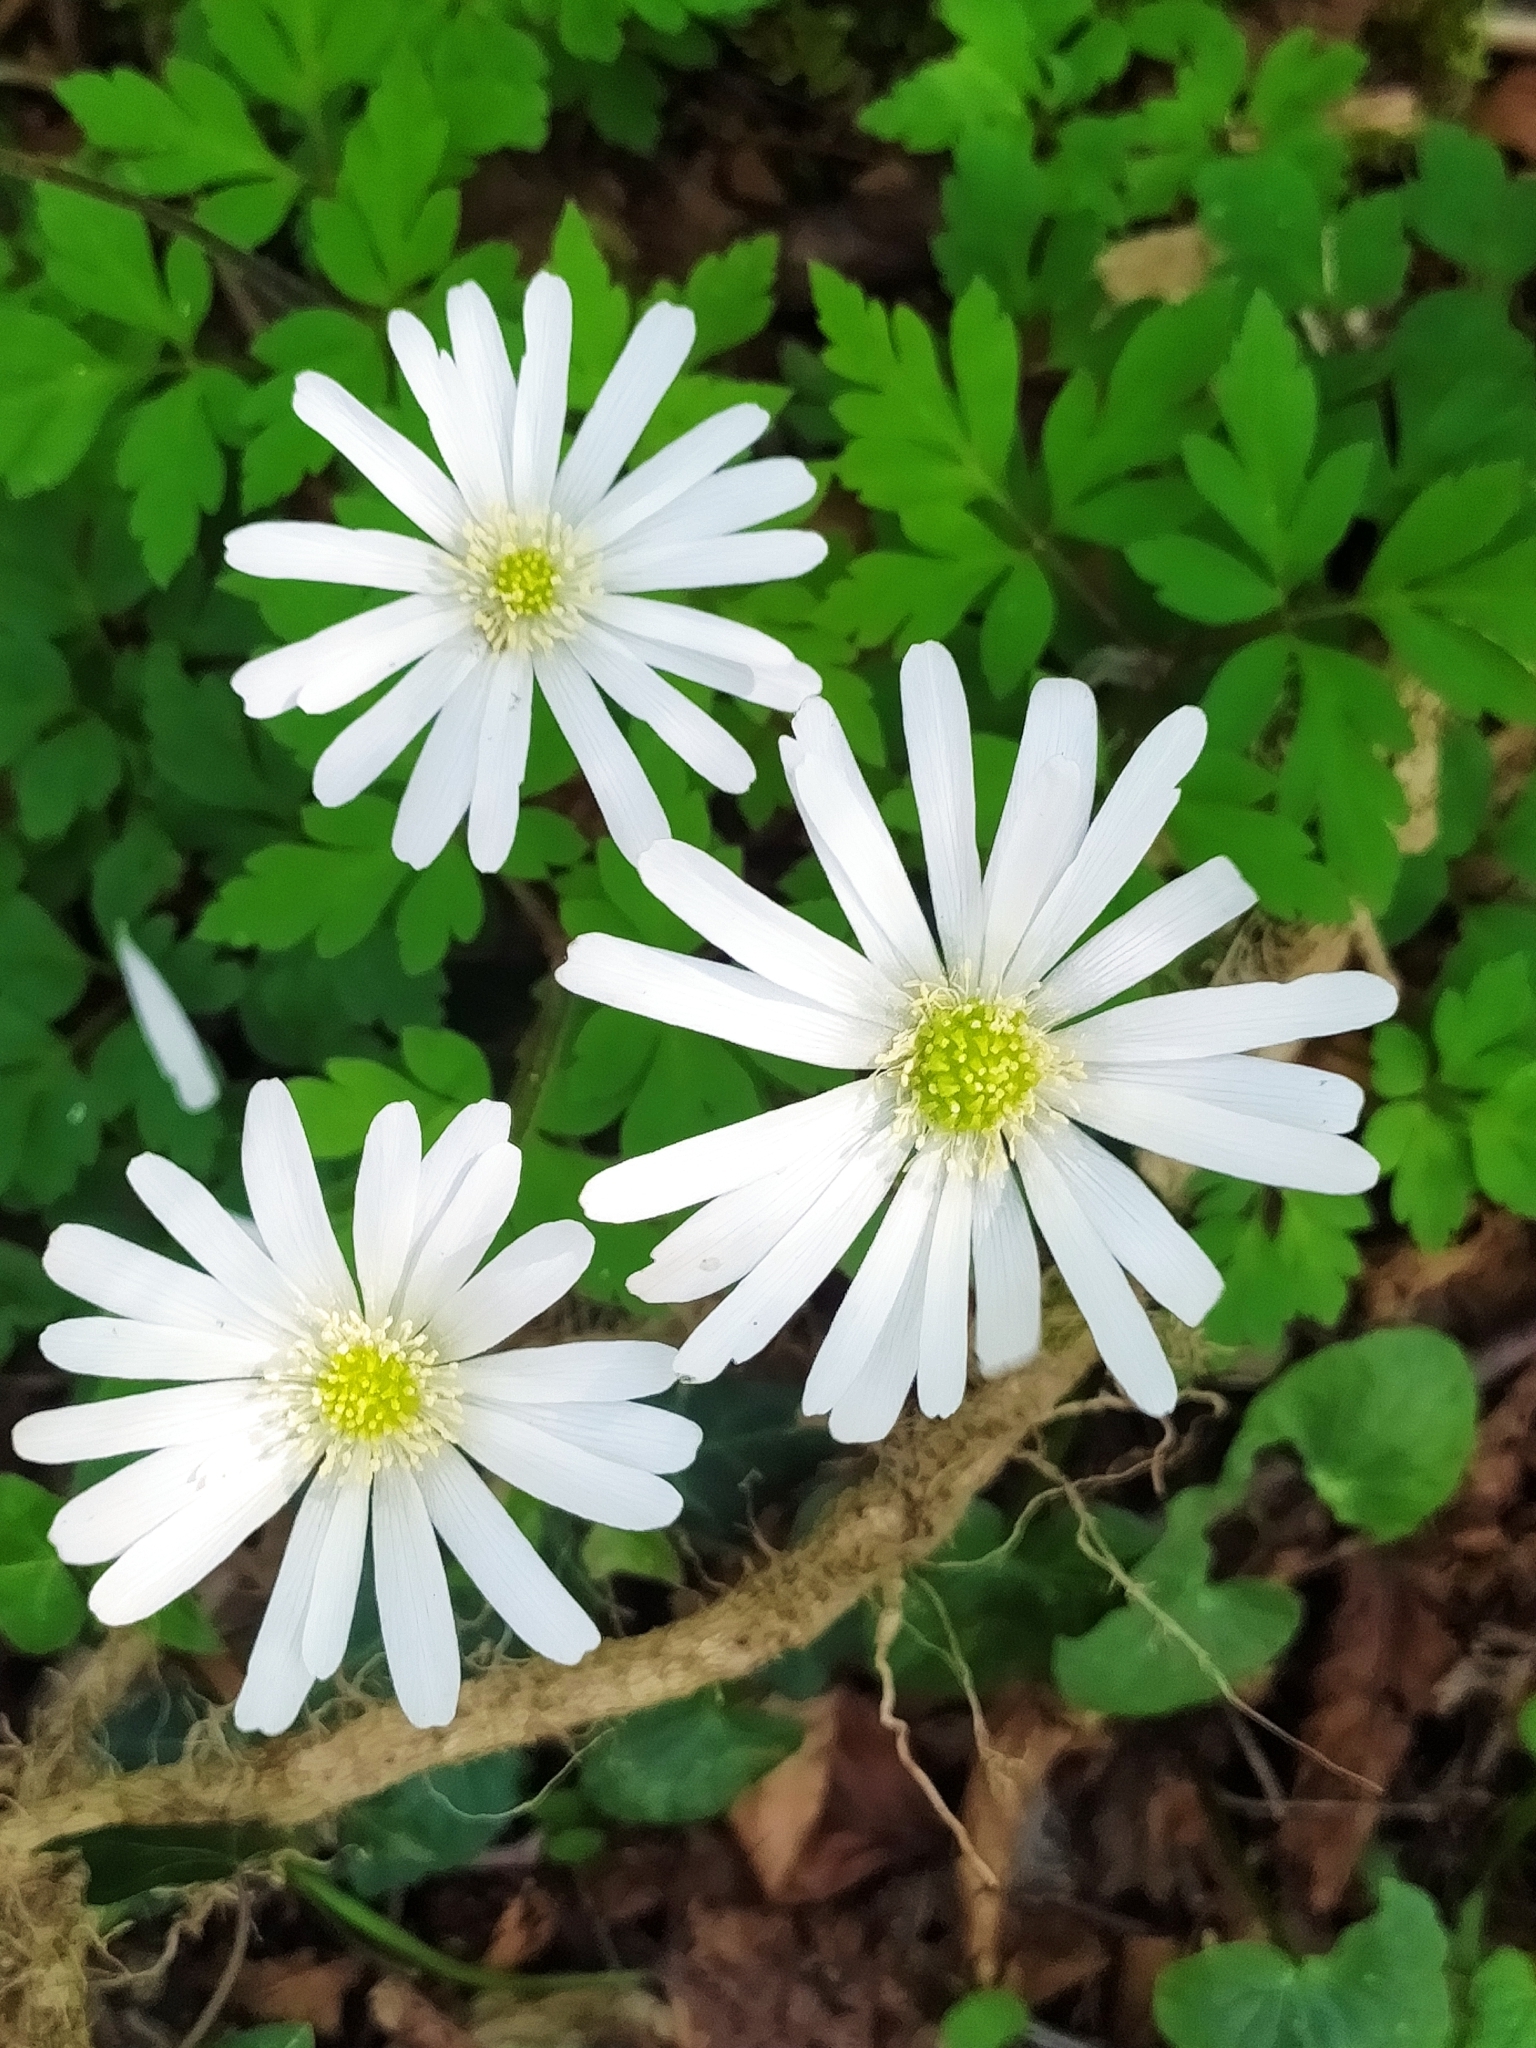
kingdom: Plantae
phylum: Tracheophyta
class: Magnoliopsida
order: Ranunculales
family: Ranunculaceae
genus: Anemone
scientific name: Anemone apennina
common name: Blue anemone
